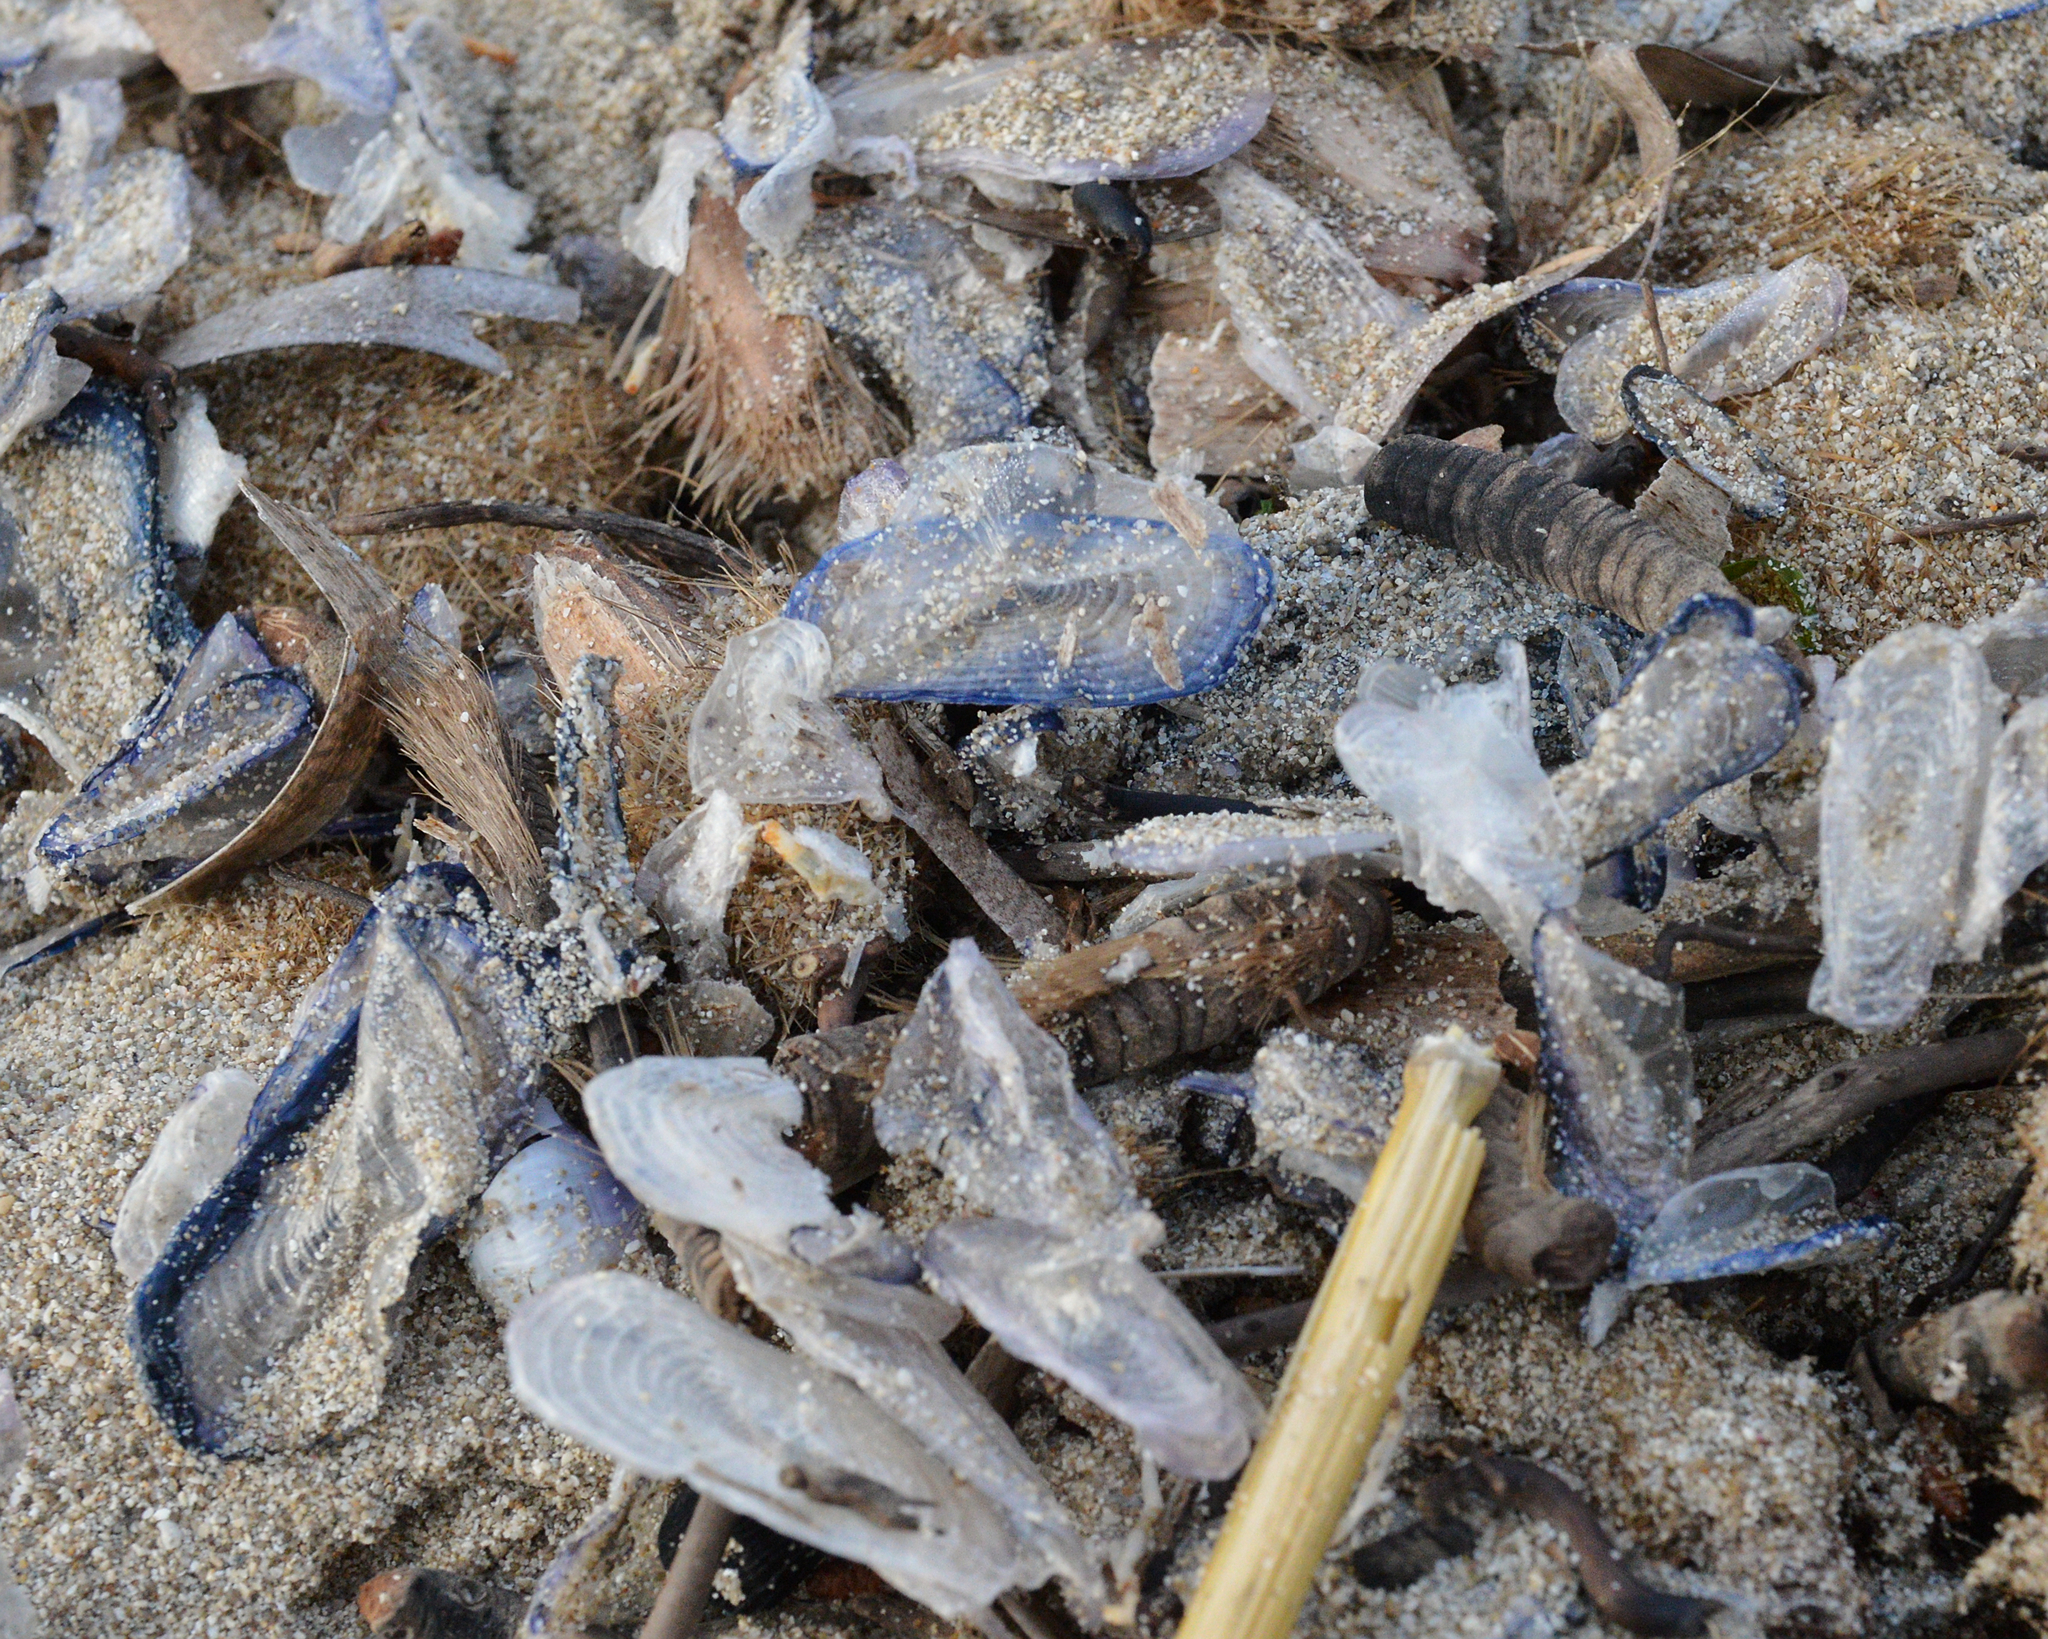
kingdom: Animalia
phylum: Cnidaria
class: Hydrozoa
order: Anthoathecata
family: Porpitidae
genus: Velella
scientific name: Velella velella
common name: By-the-wind-sailor
